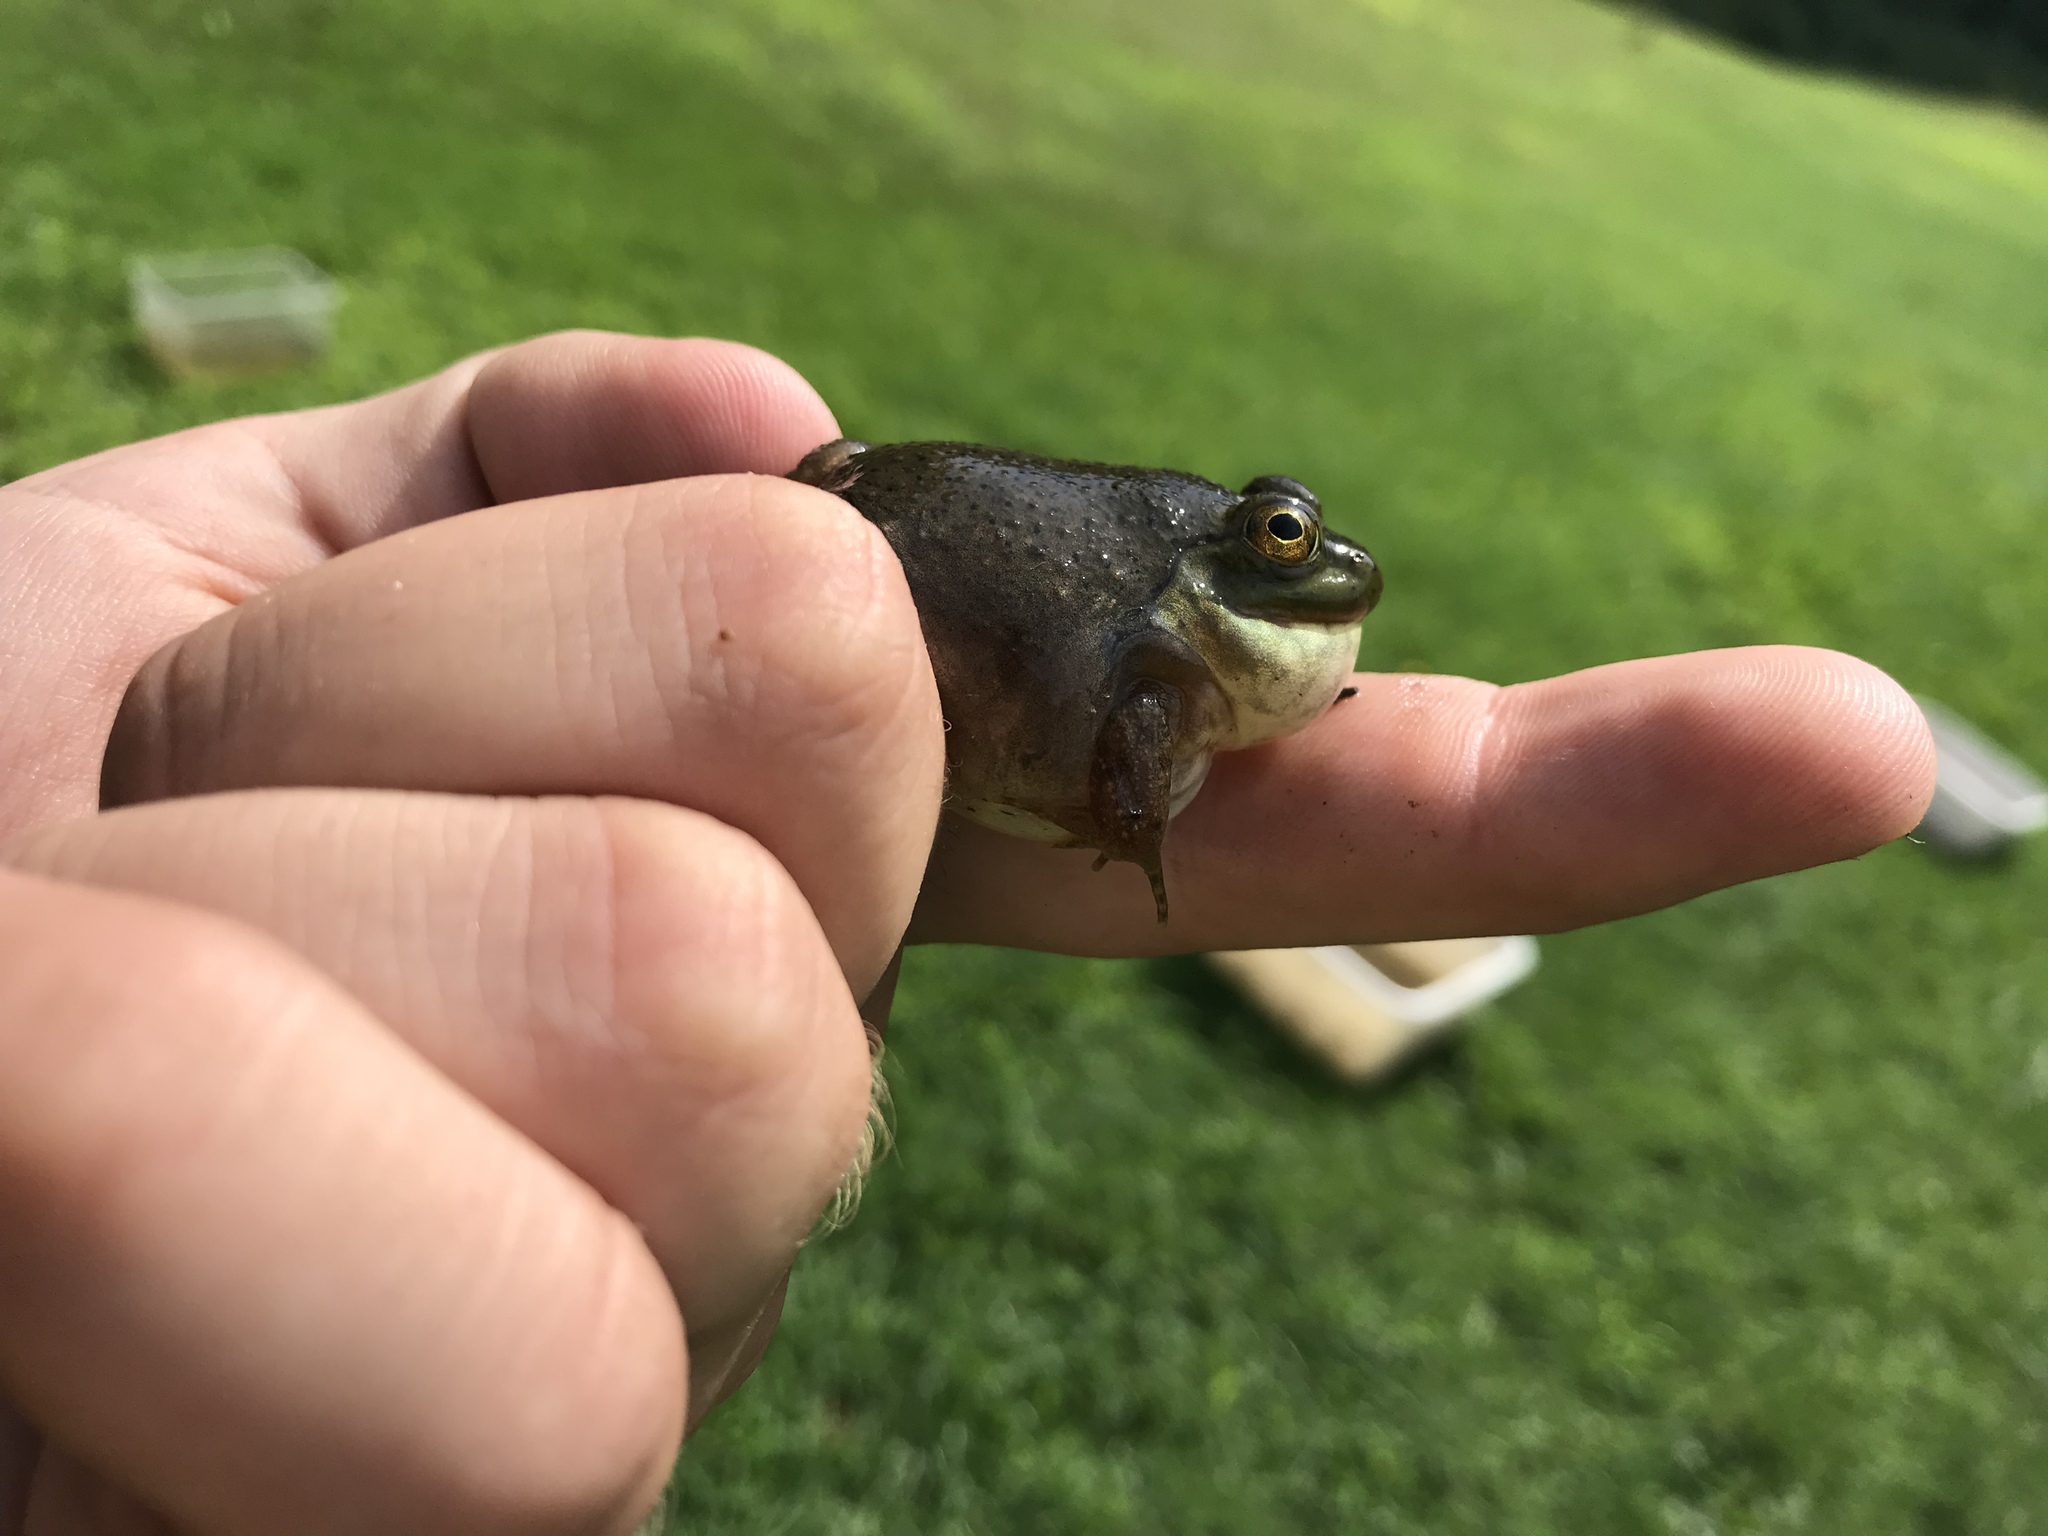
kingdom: Animalia
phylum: Chordata
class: Amphibia
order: Anura
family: Ranidae
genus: Lithobates
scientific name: Lithobates catesbeianus
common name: American bullfrog
